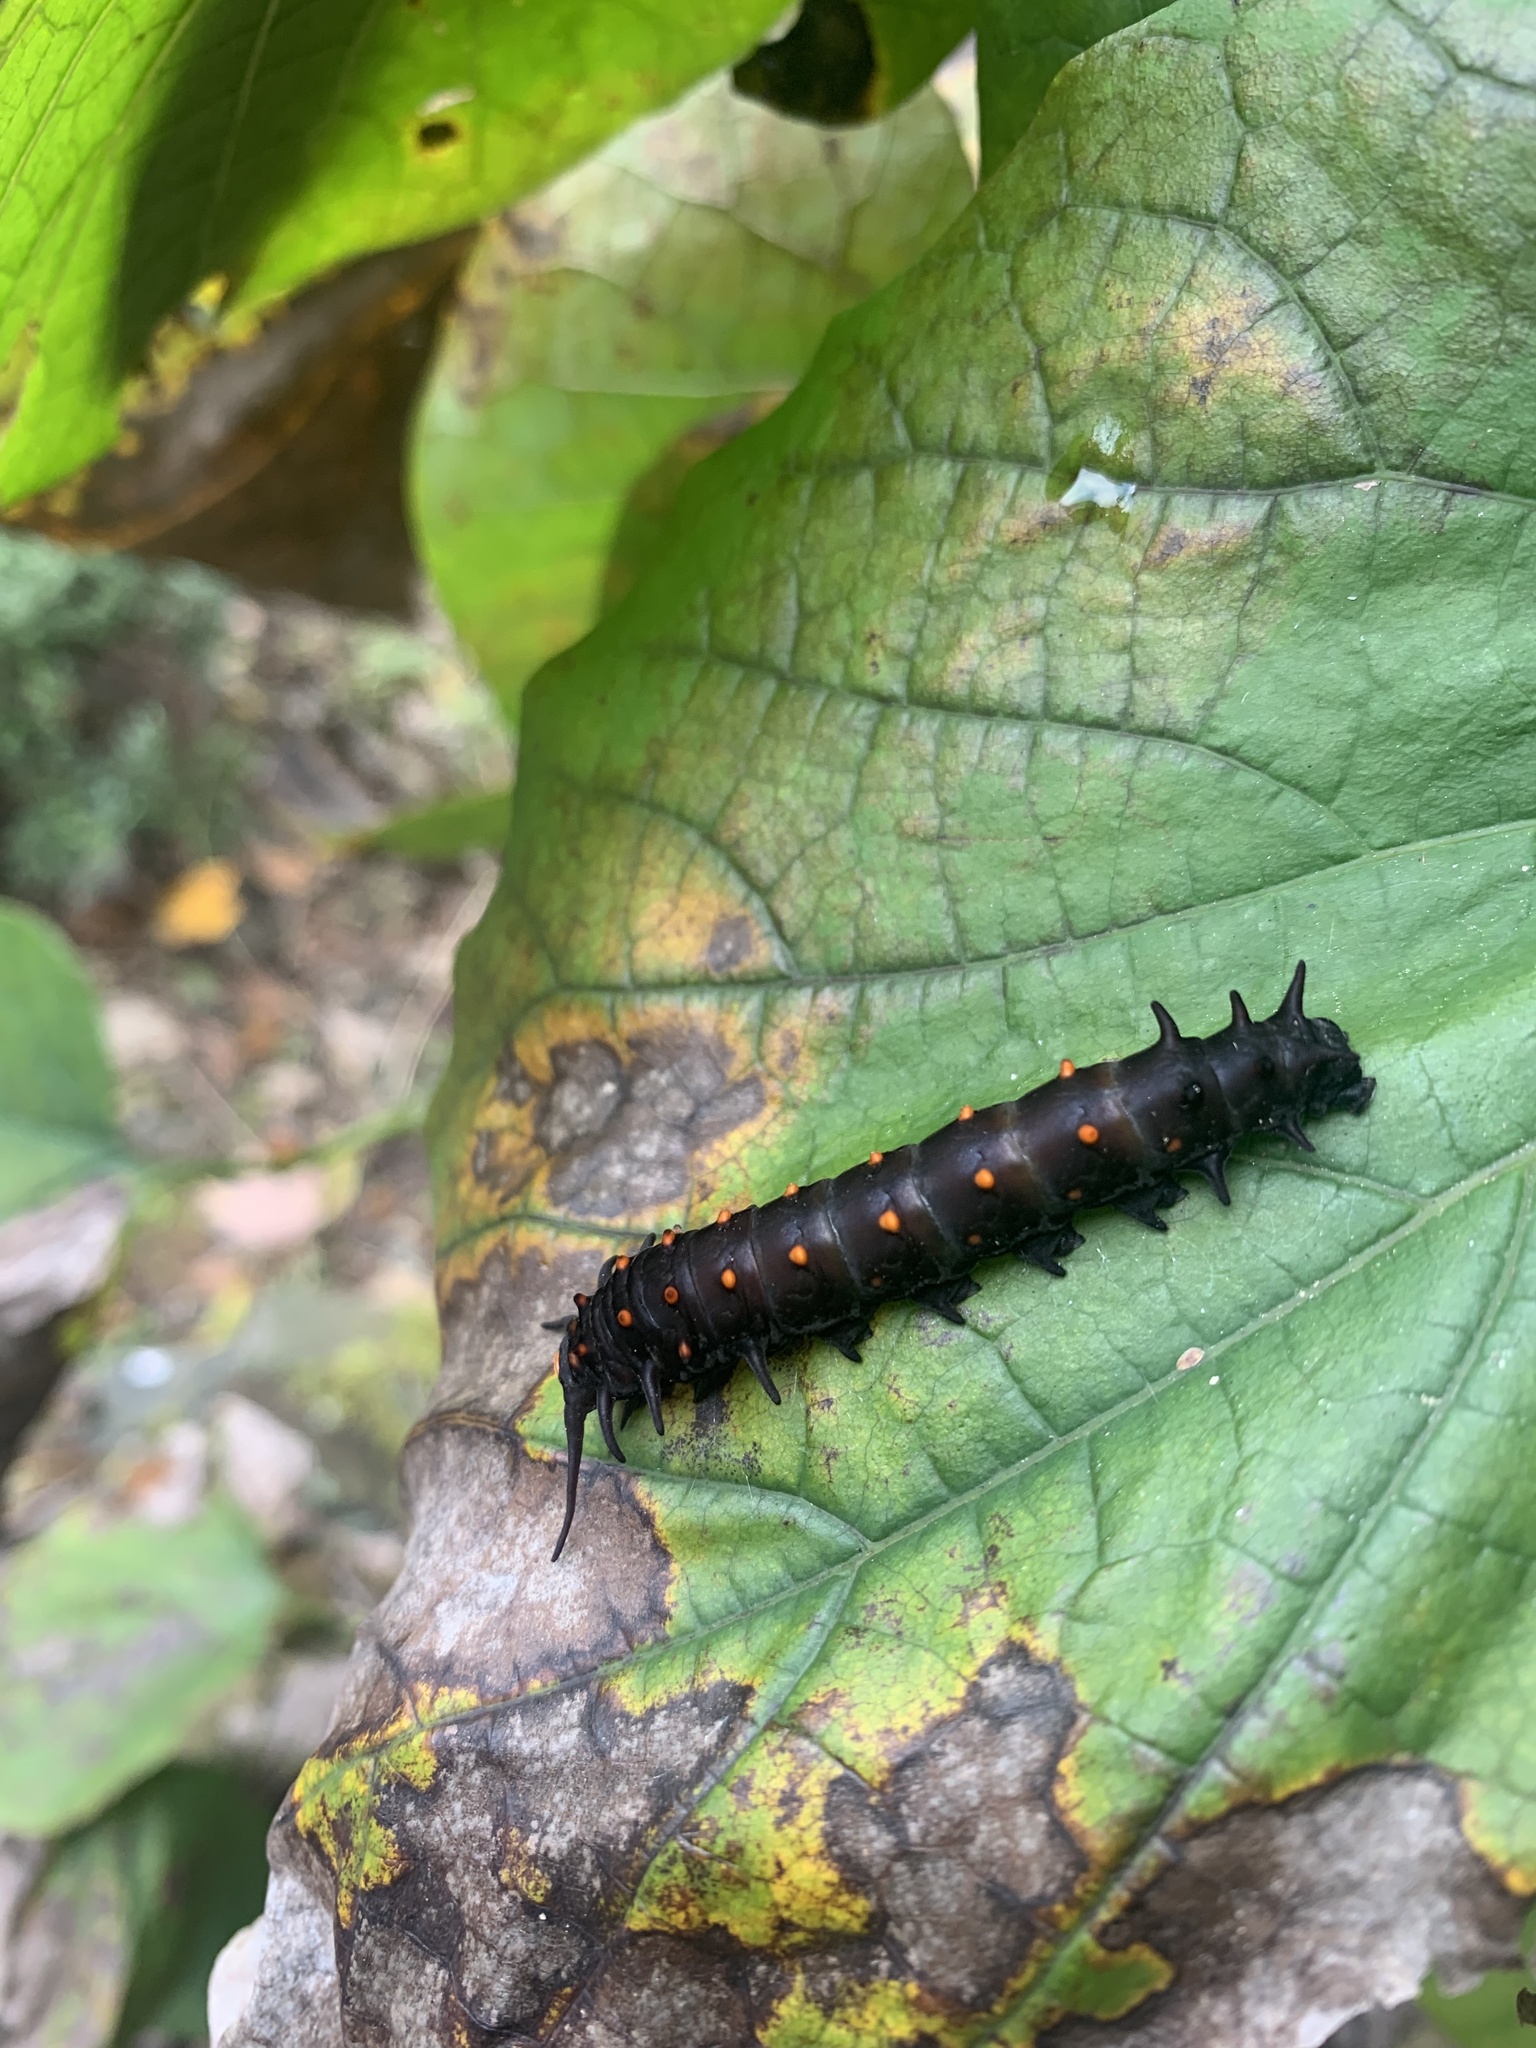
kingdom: Animalia
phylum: Arthropoda
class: Insecta
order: Lepidoptera
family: Papilionidae
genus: Battus
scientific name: Battus philenor
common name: Pipevine swallowtail
